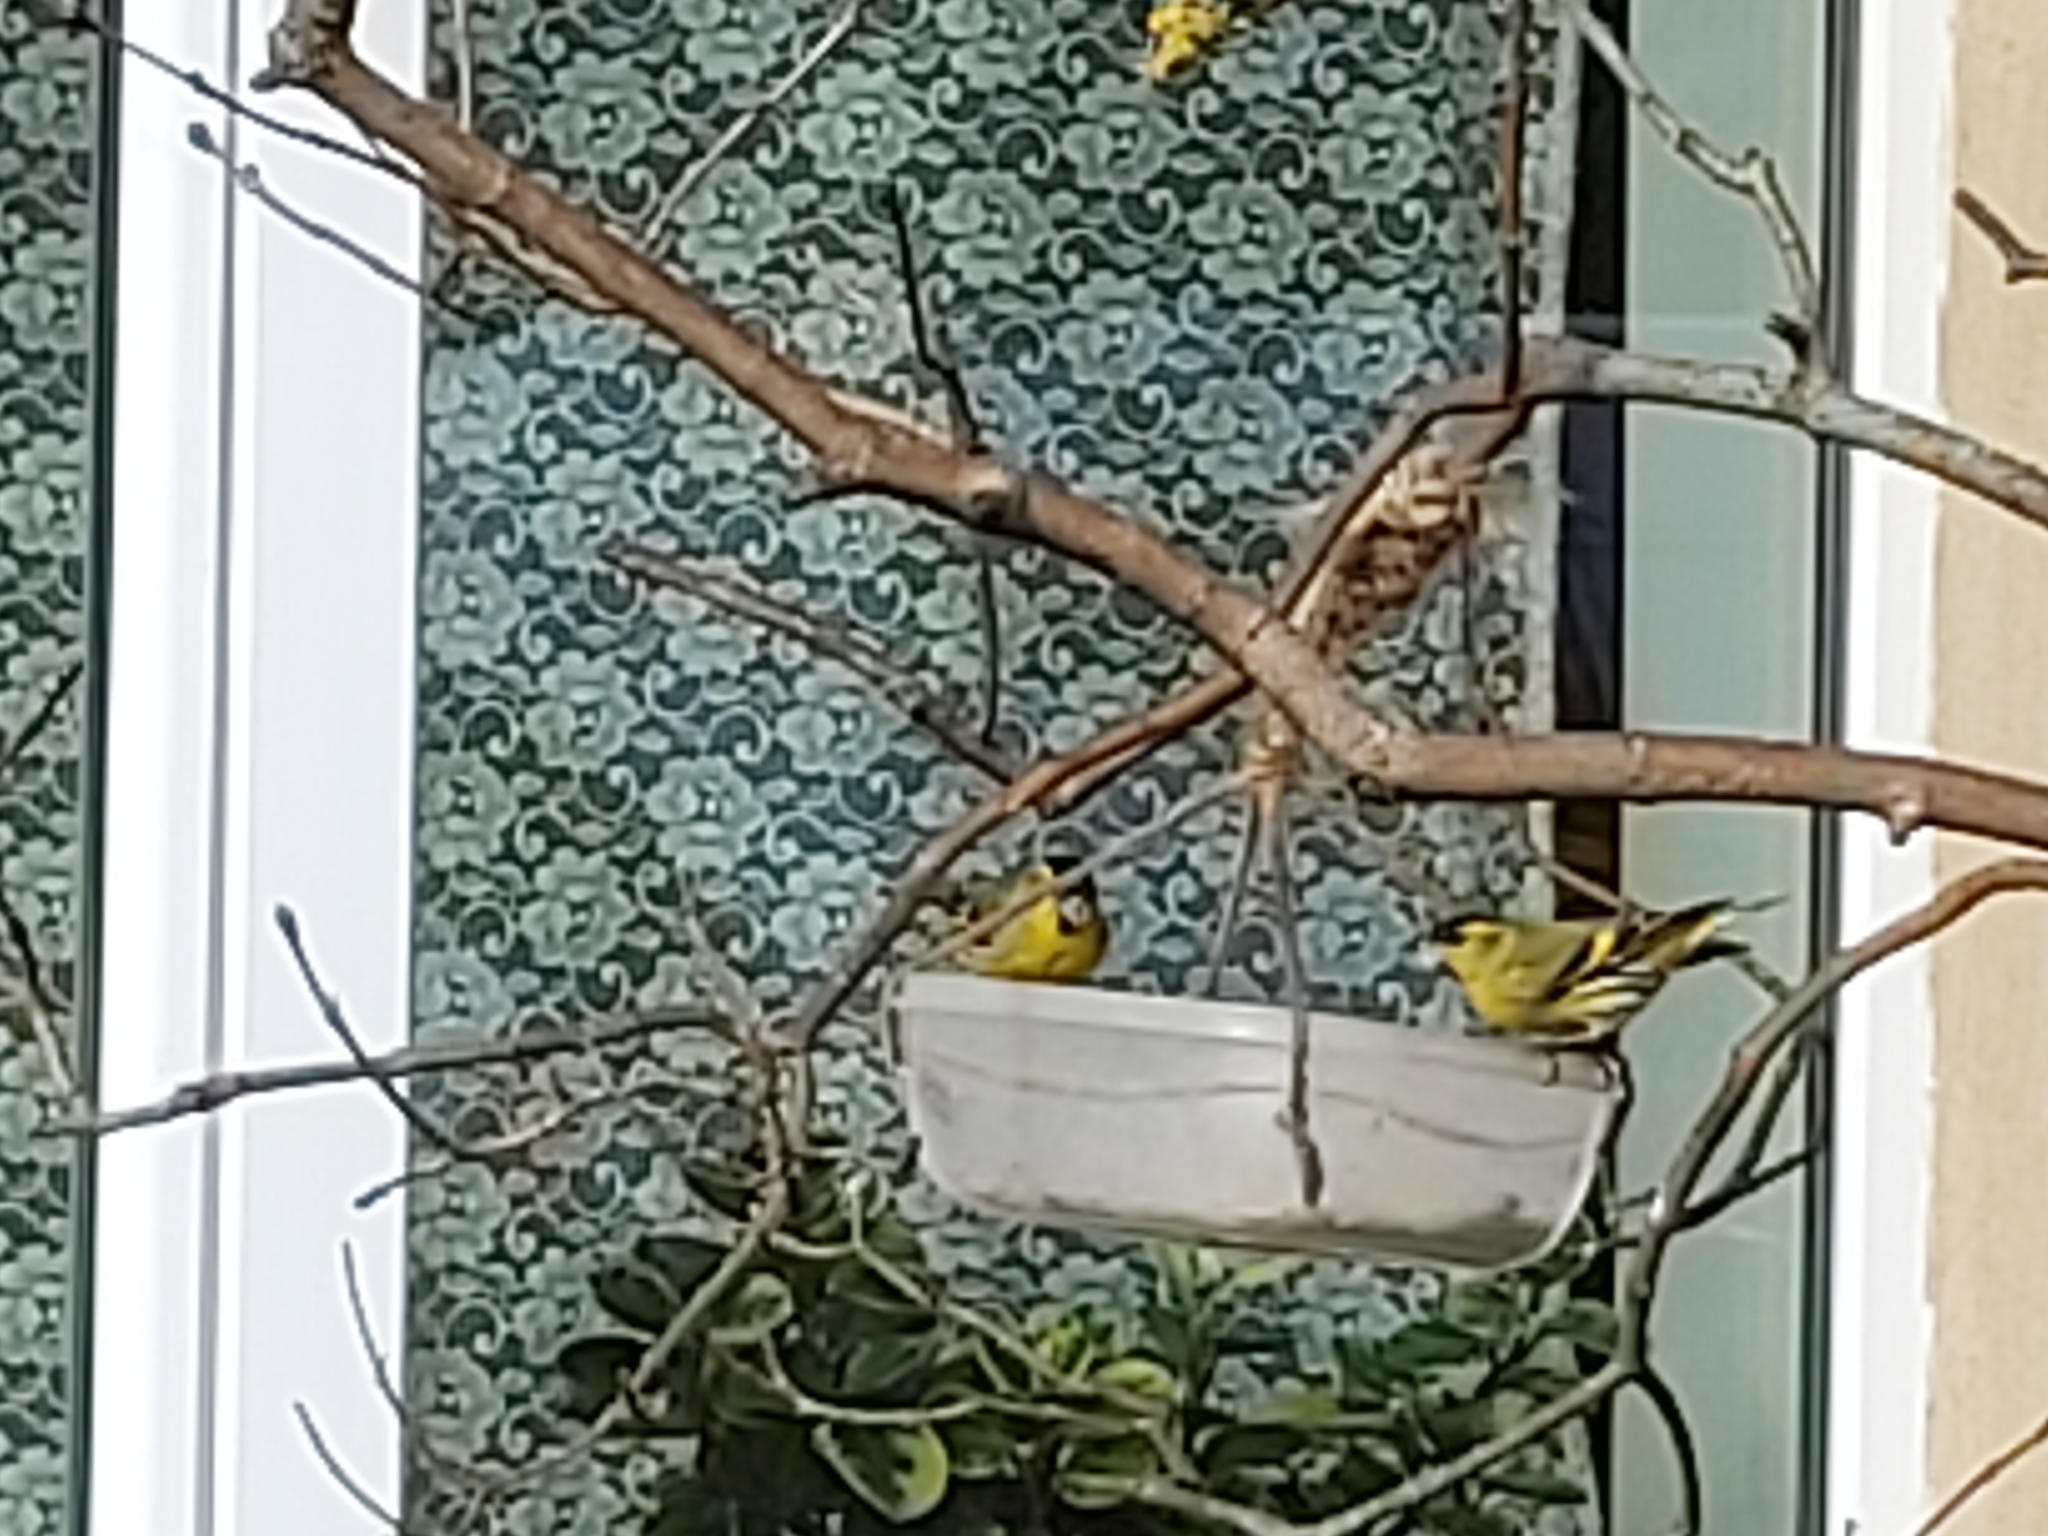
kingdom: Animalia
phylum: Chordata
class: Aves
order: Passeriformes
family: Fringillidae
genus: Spinus
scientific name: Spinus spinus
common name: Eurasian siskin
